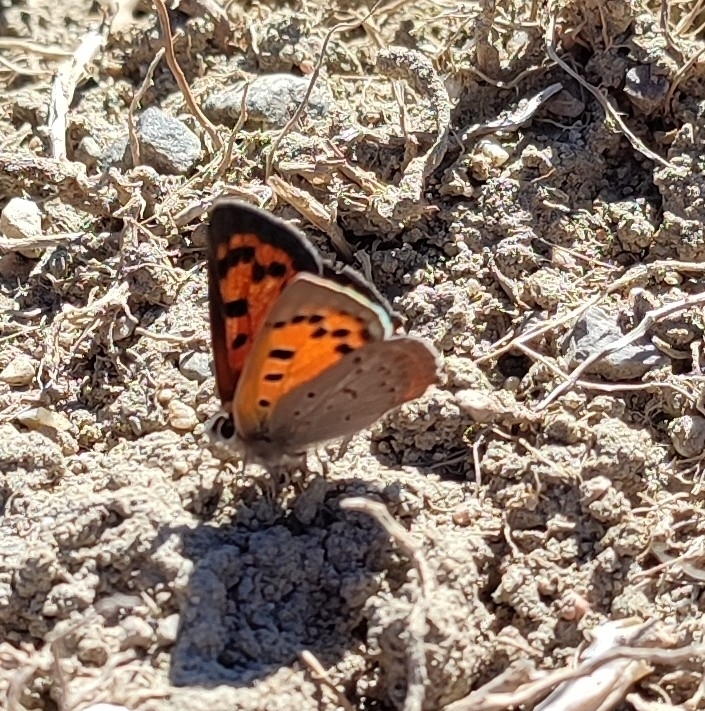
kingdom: Animalia
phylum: Arthropoda
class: Insecta
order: Lepidoptera
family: Lycaenidae
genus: Lycaena
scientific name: Lycaena phlaeas
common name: Small copper
